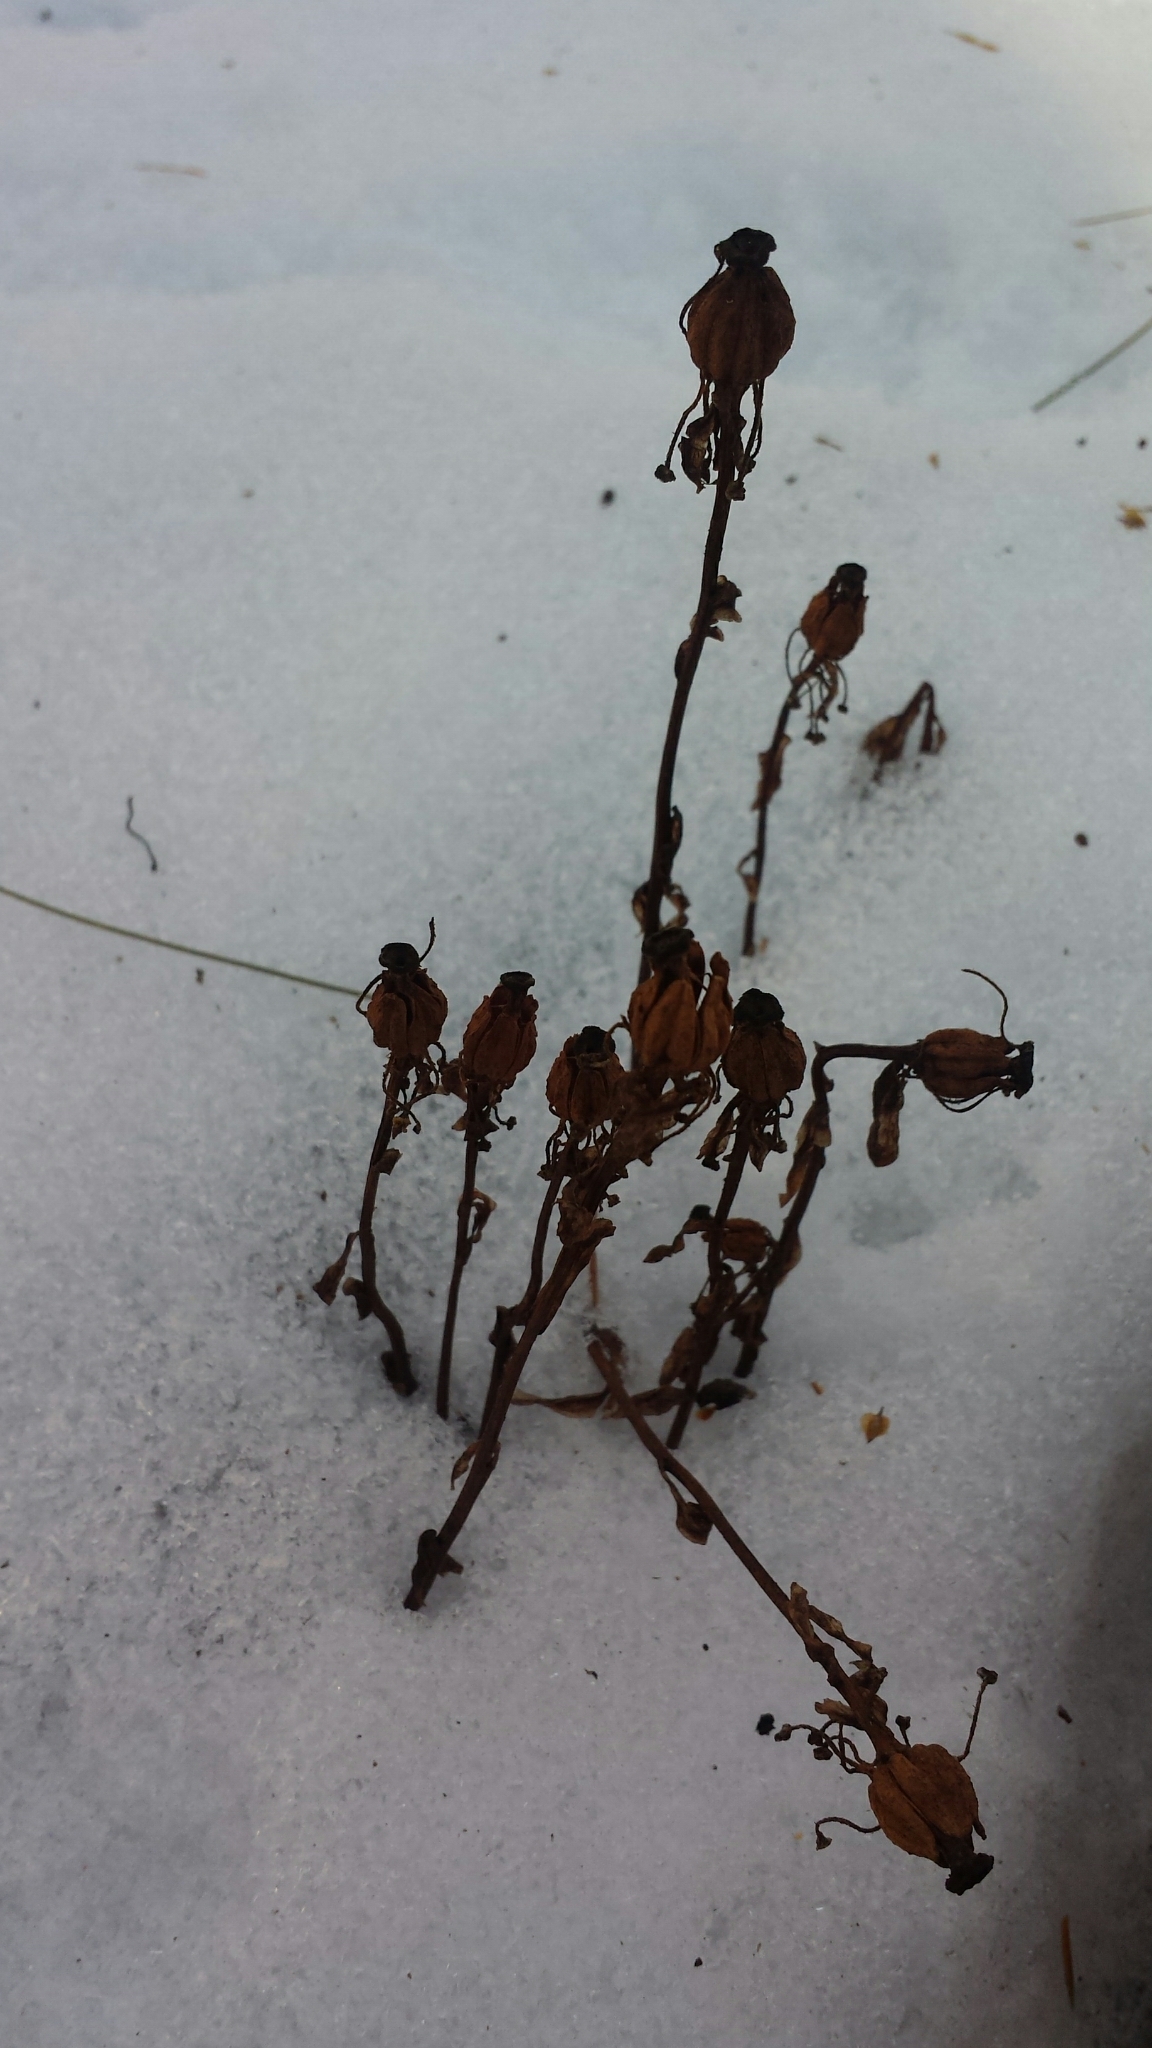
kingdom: Plantae
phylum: Tracheophyta
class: Magnoliopsida
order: Ericales
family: Ericaceae
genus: Monotropa
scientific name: Monotropa uniflora
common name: Convulsion root
